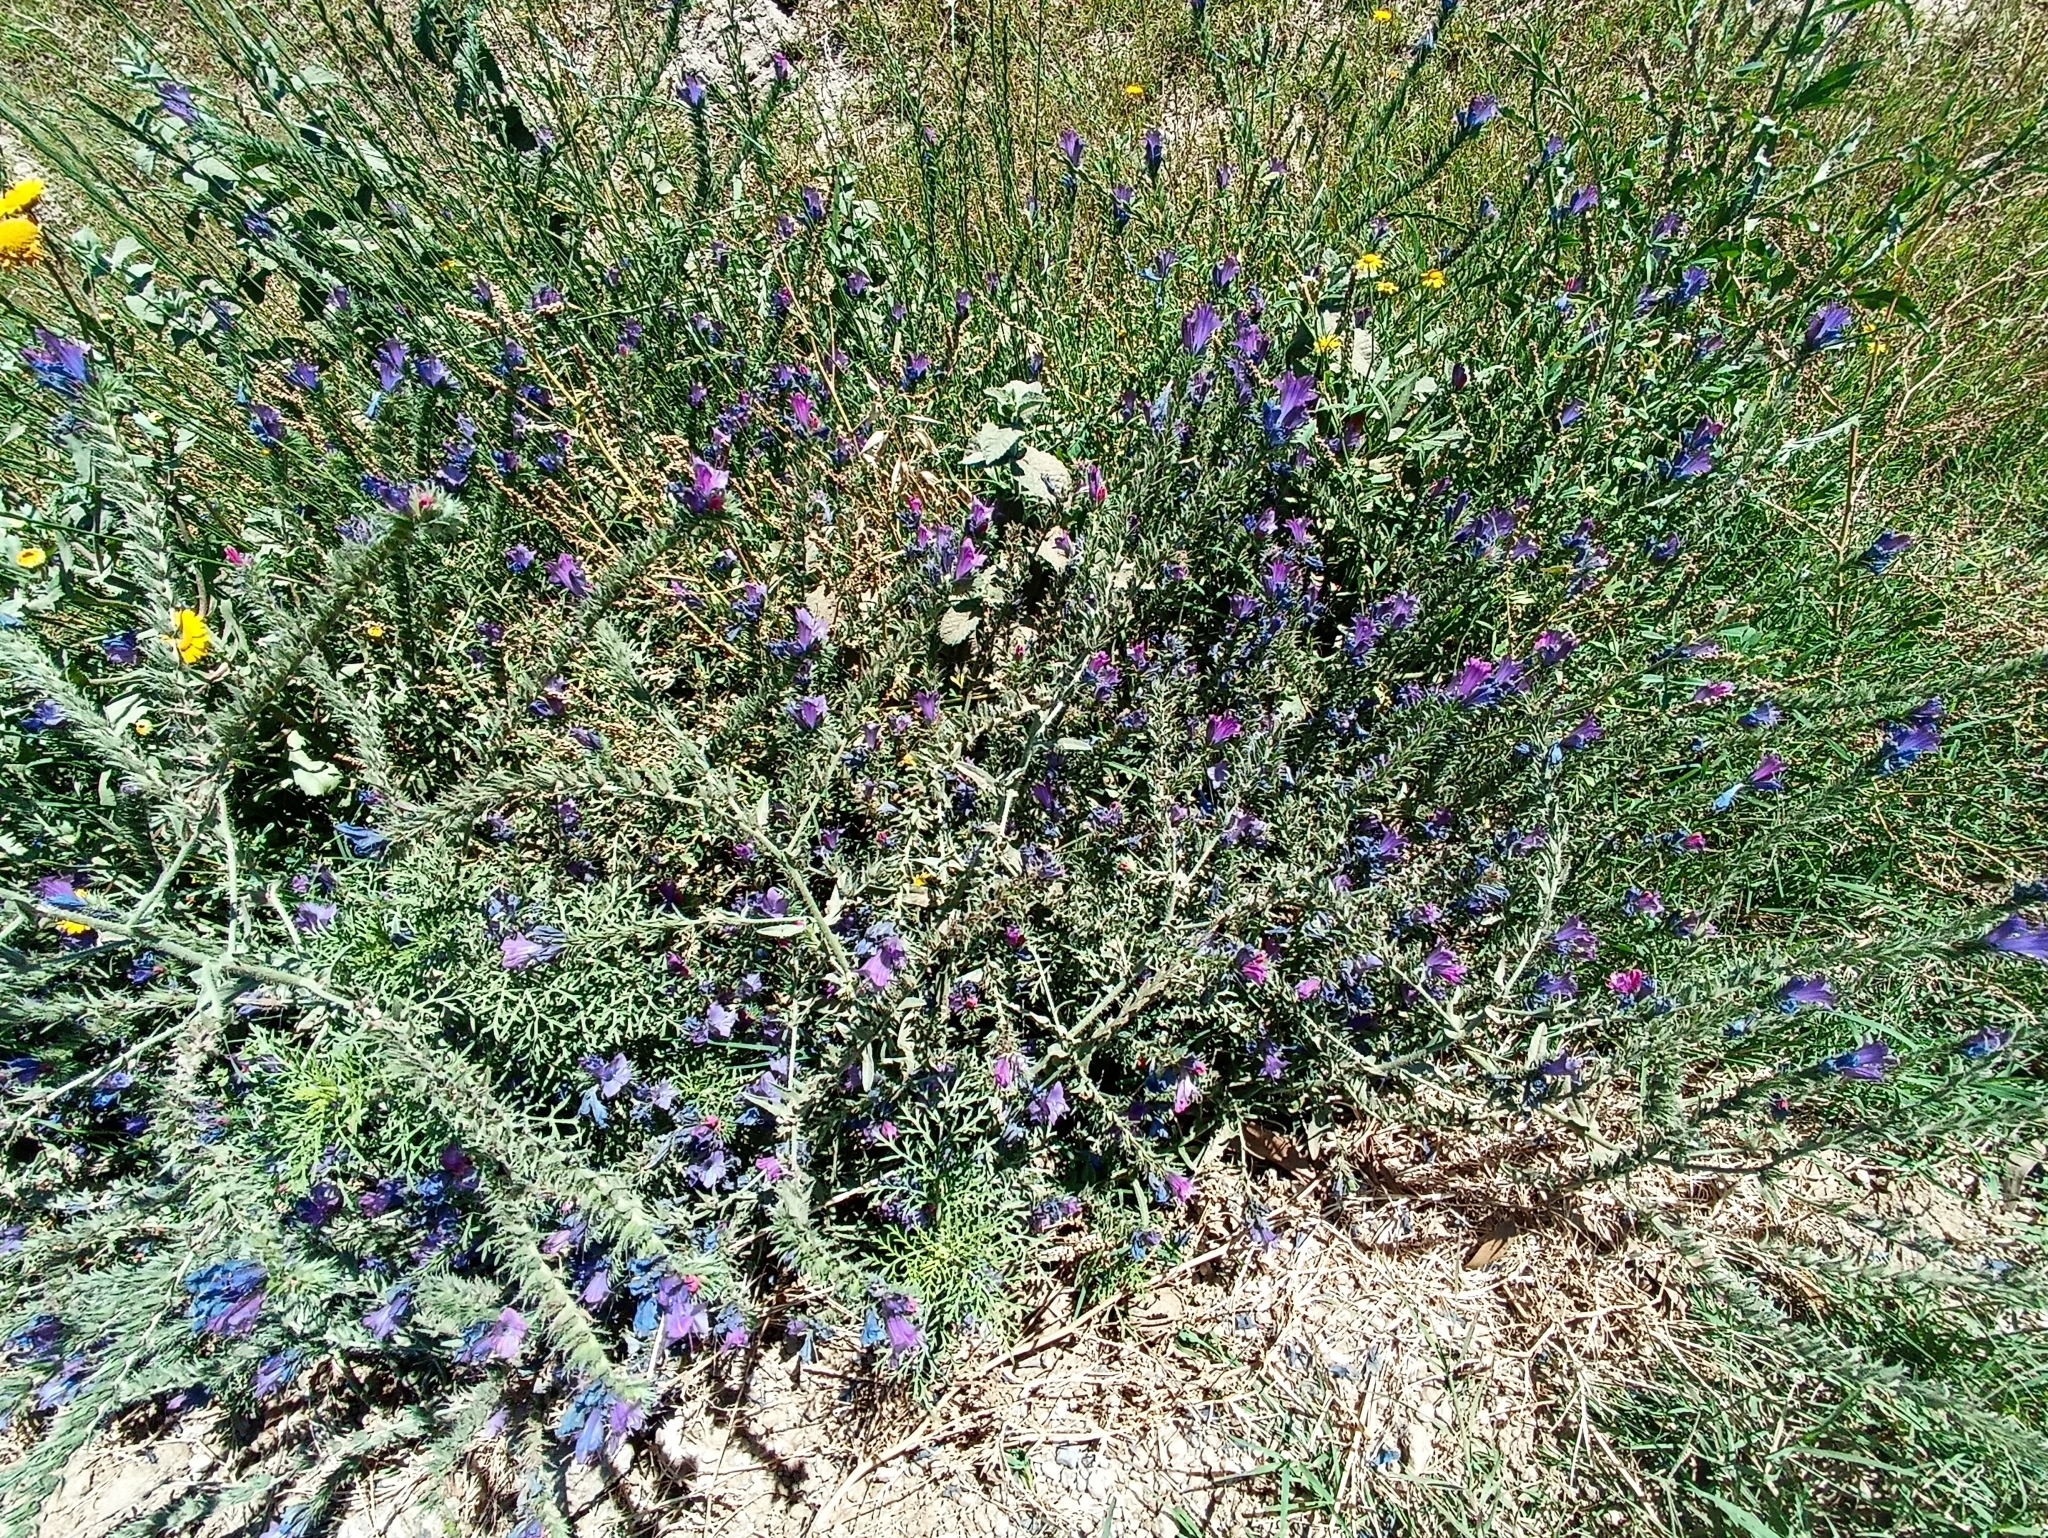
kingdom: Plantae
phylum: Tracheophyta
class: Magnoliopsida
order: Boraginales
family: Boraginaceae
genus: Echium
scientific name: Echium plantagineum
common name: Purple viper's-bugloss
